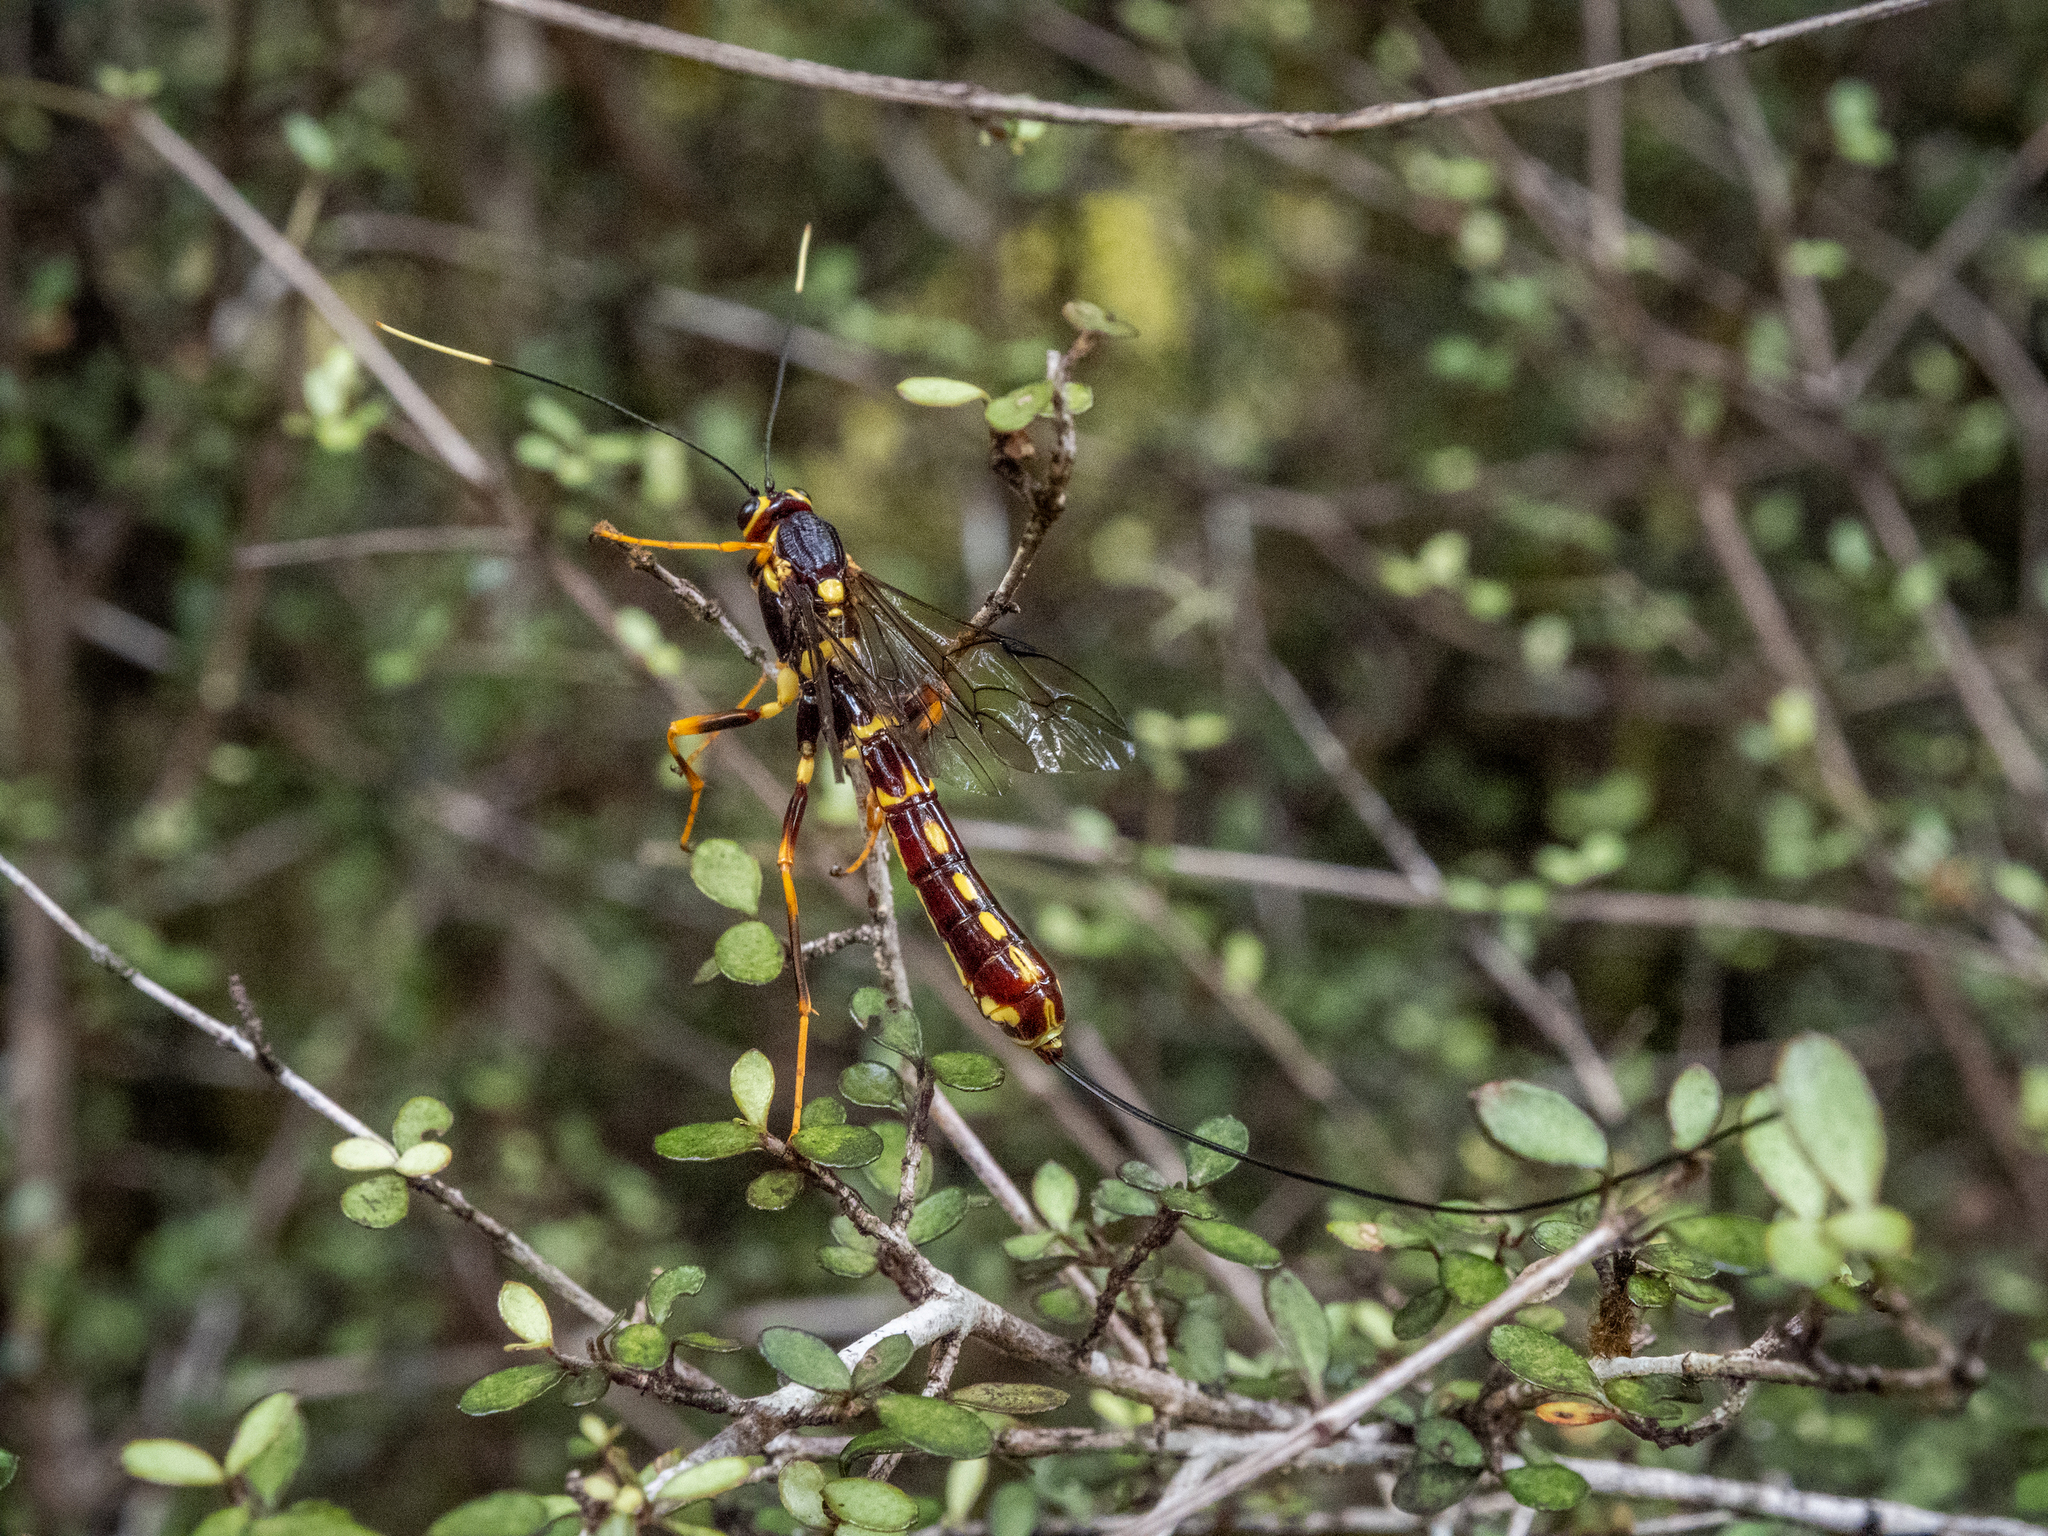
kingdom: Animalia
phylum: Arthropoda
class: Insecta
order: Hymenoptera
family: Ichneumonidae
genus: Certonotus
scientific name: Certonotus fractinervis
